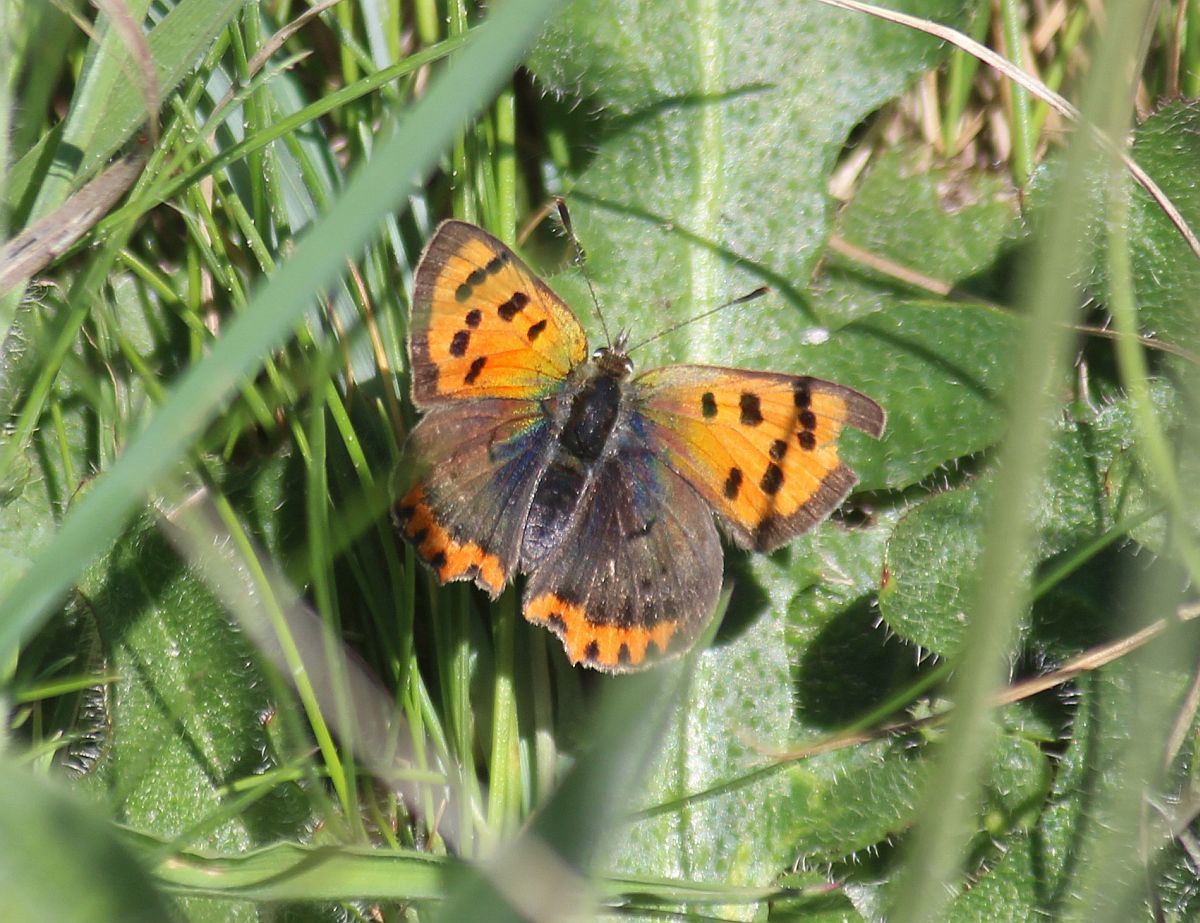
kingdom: Animalia
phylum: Arthropoda
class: Insecta
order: Lepidoptera
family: Lycaenidae
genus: Lycaena
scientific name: Lycaena phlaeas
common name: Small copper
